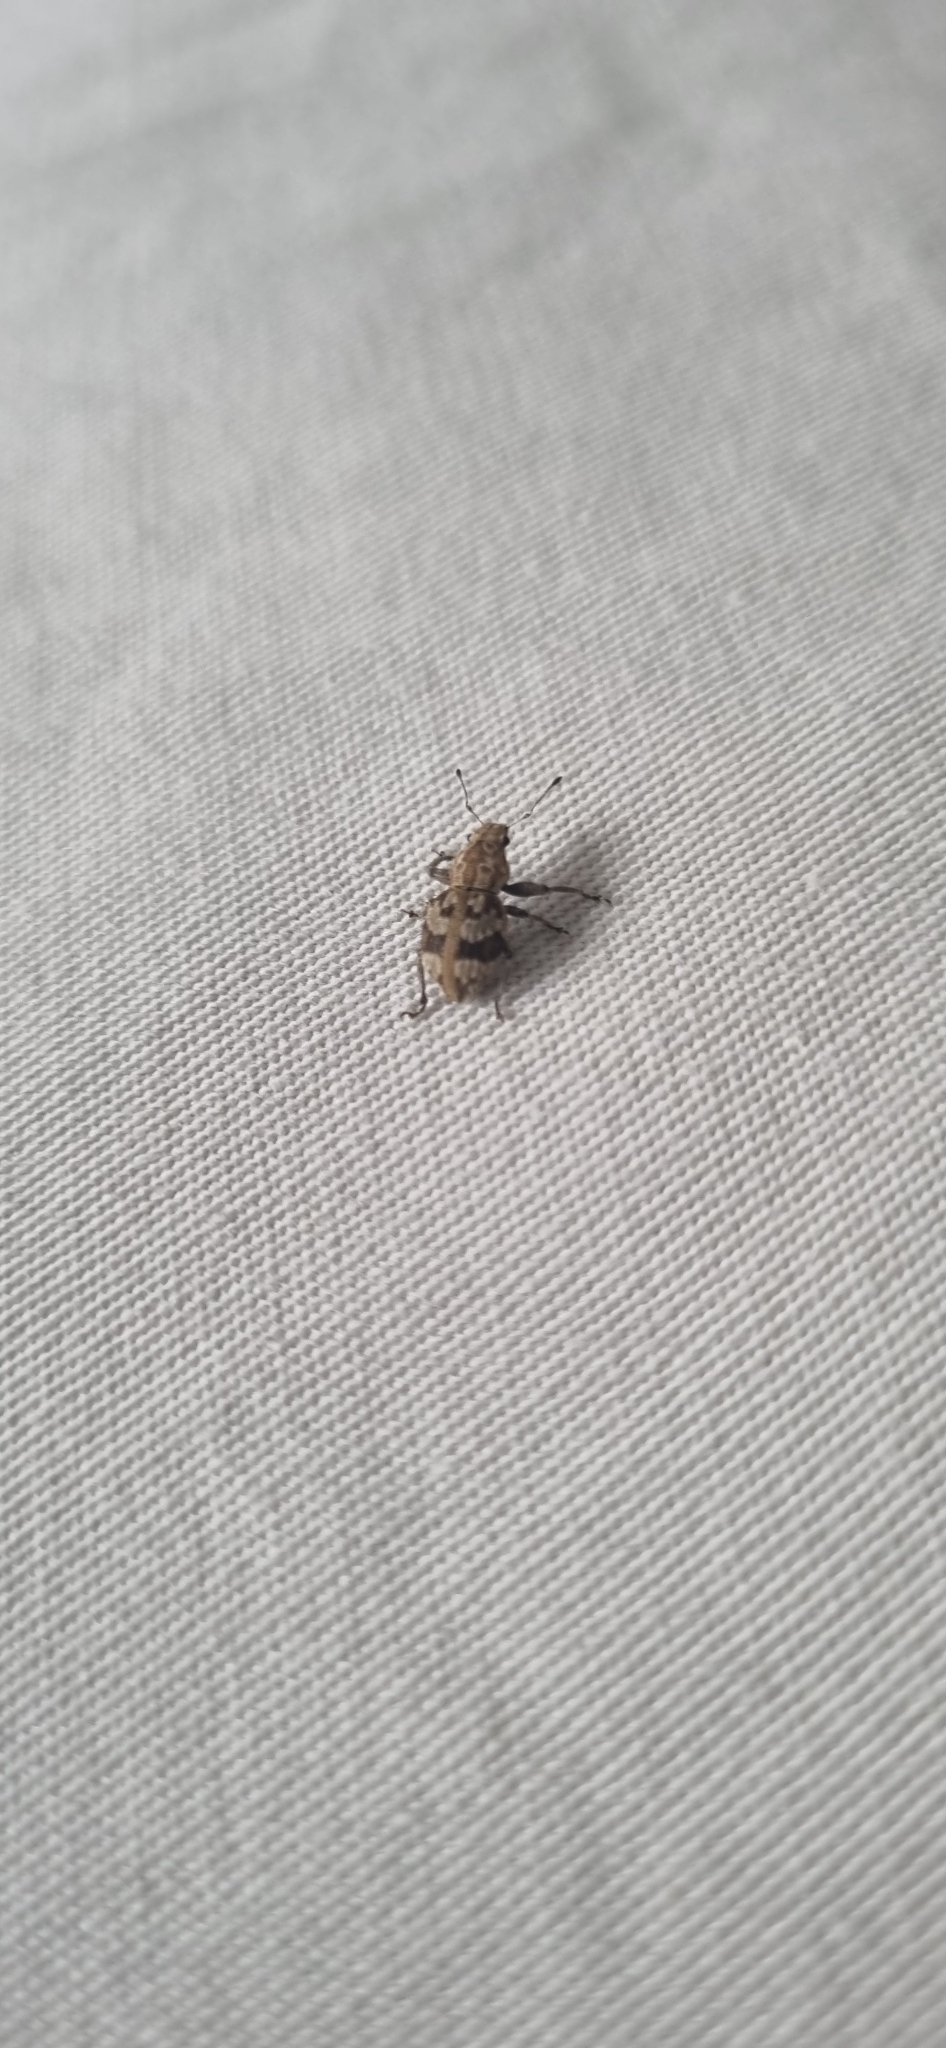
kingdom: Animalia
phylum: Arthropoda
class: Insecta
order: Coleoptera
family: Curculionidae
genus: Pantomorus
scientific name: Pantomorus
